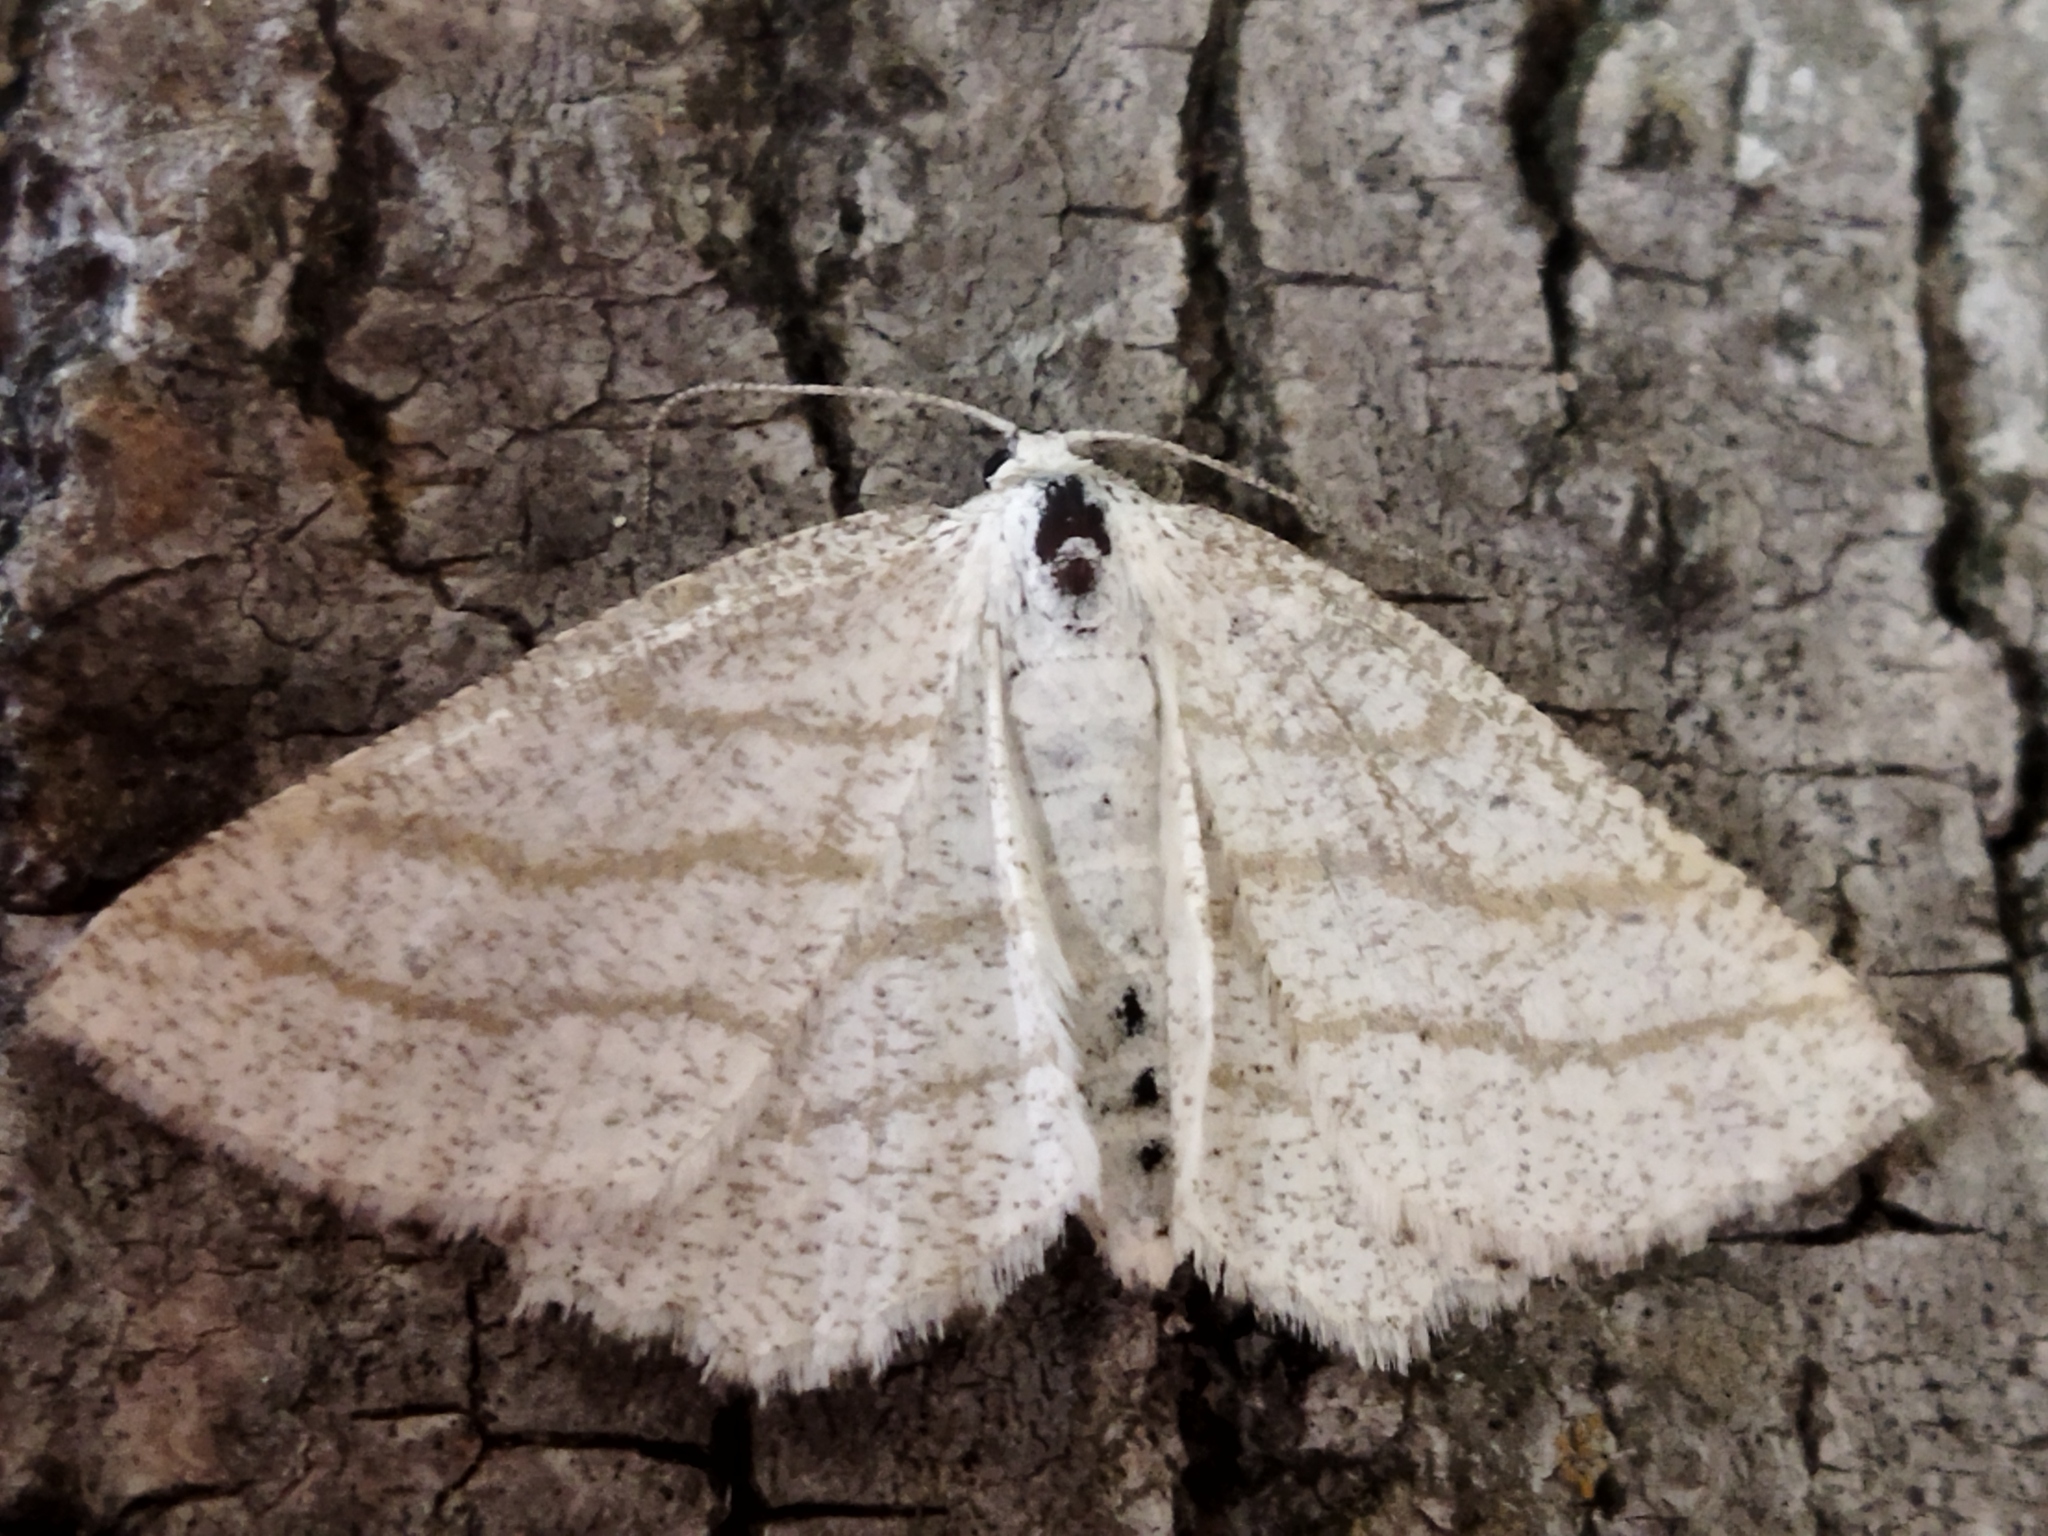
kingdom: Animalia
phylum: Arthropoda
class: Insecta
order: Lepidoptera
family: Geometridae
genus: Perconia
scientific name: Perconia strigillaria
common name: Grass wave
